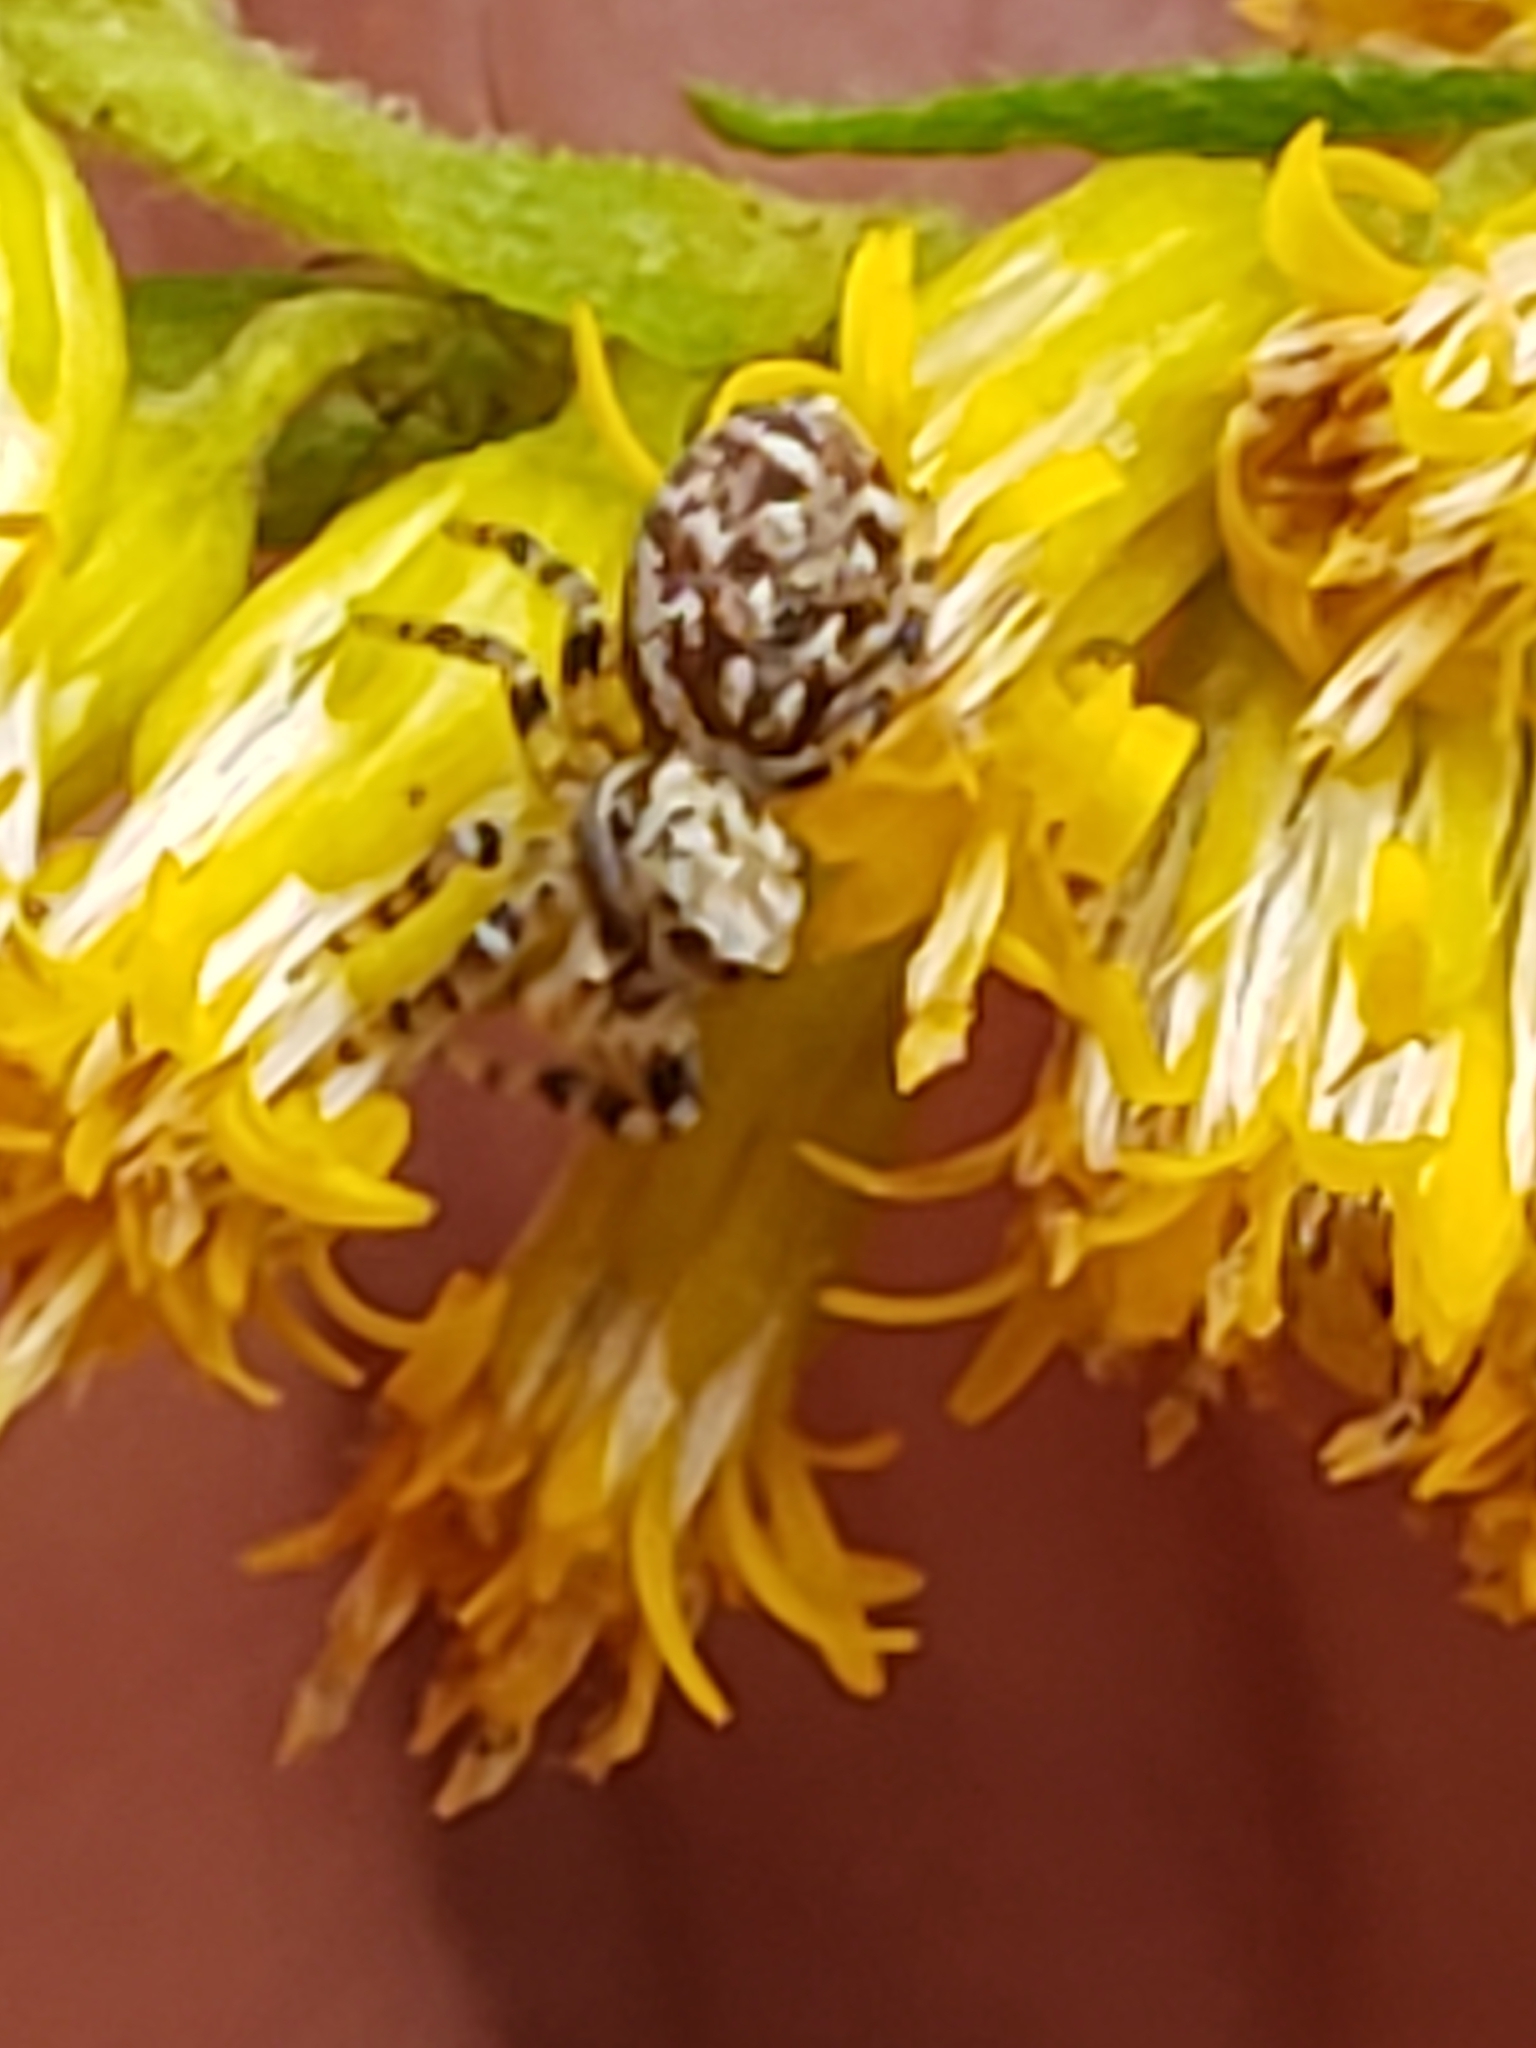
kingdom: Animalia
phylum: Arthropoda
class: Arachnida
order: Araneae
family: Salticidae
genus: Pelegrina
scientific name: Pelegrina galathea
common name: Jumping spiders
